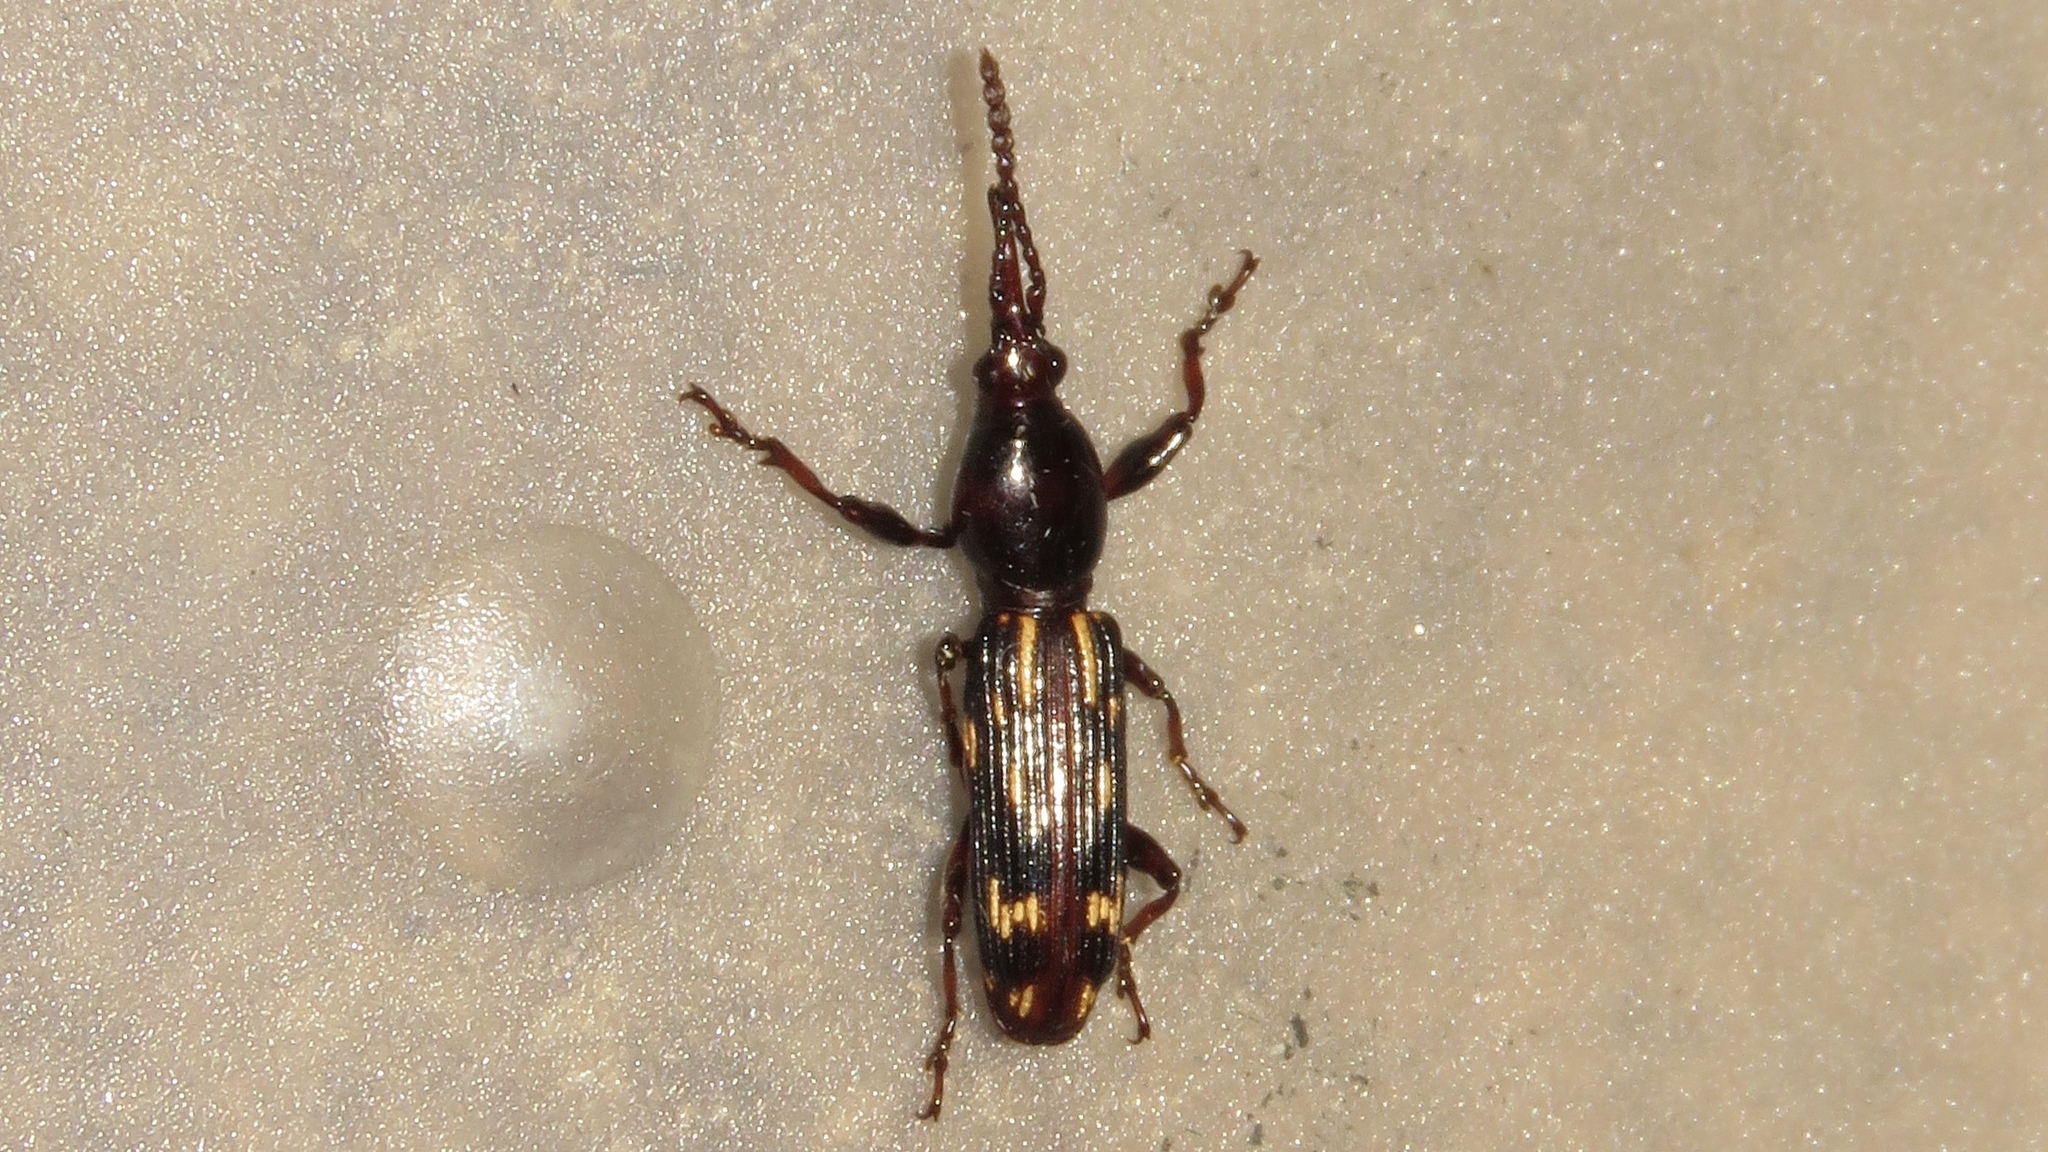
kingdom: Animalia
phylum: Arthropoda
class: Insecta
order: Coleoptera
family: Brentidae
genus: Arrenodes
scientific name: Arrenodes minutus
